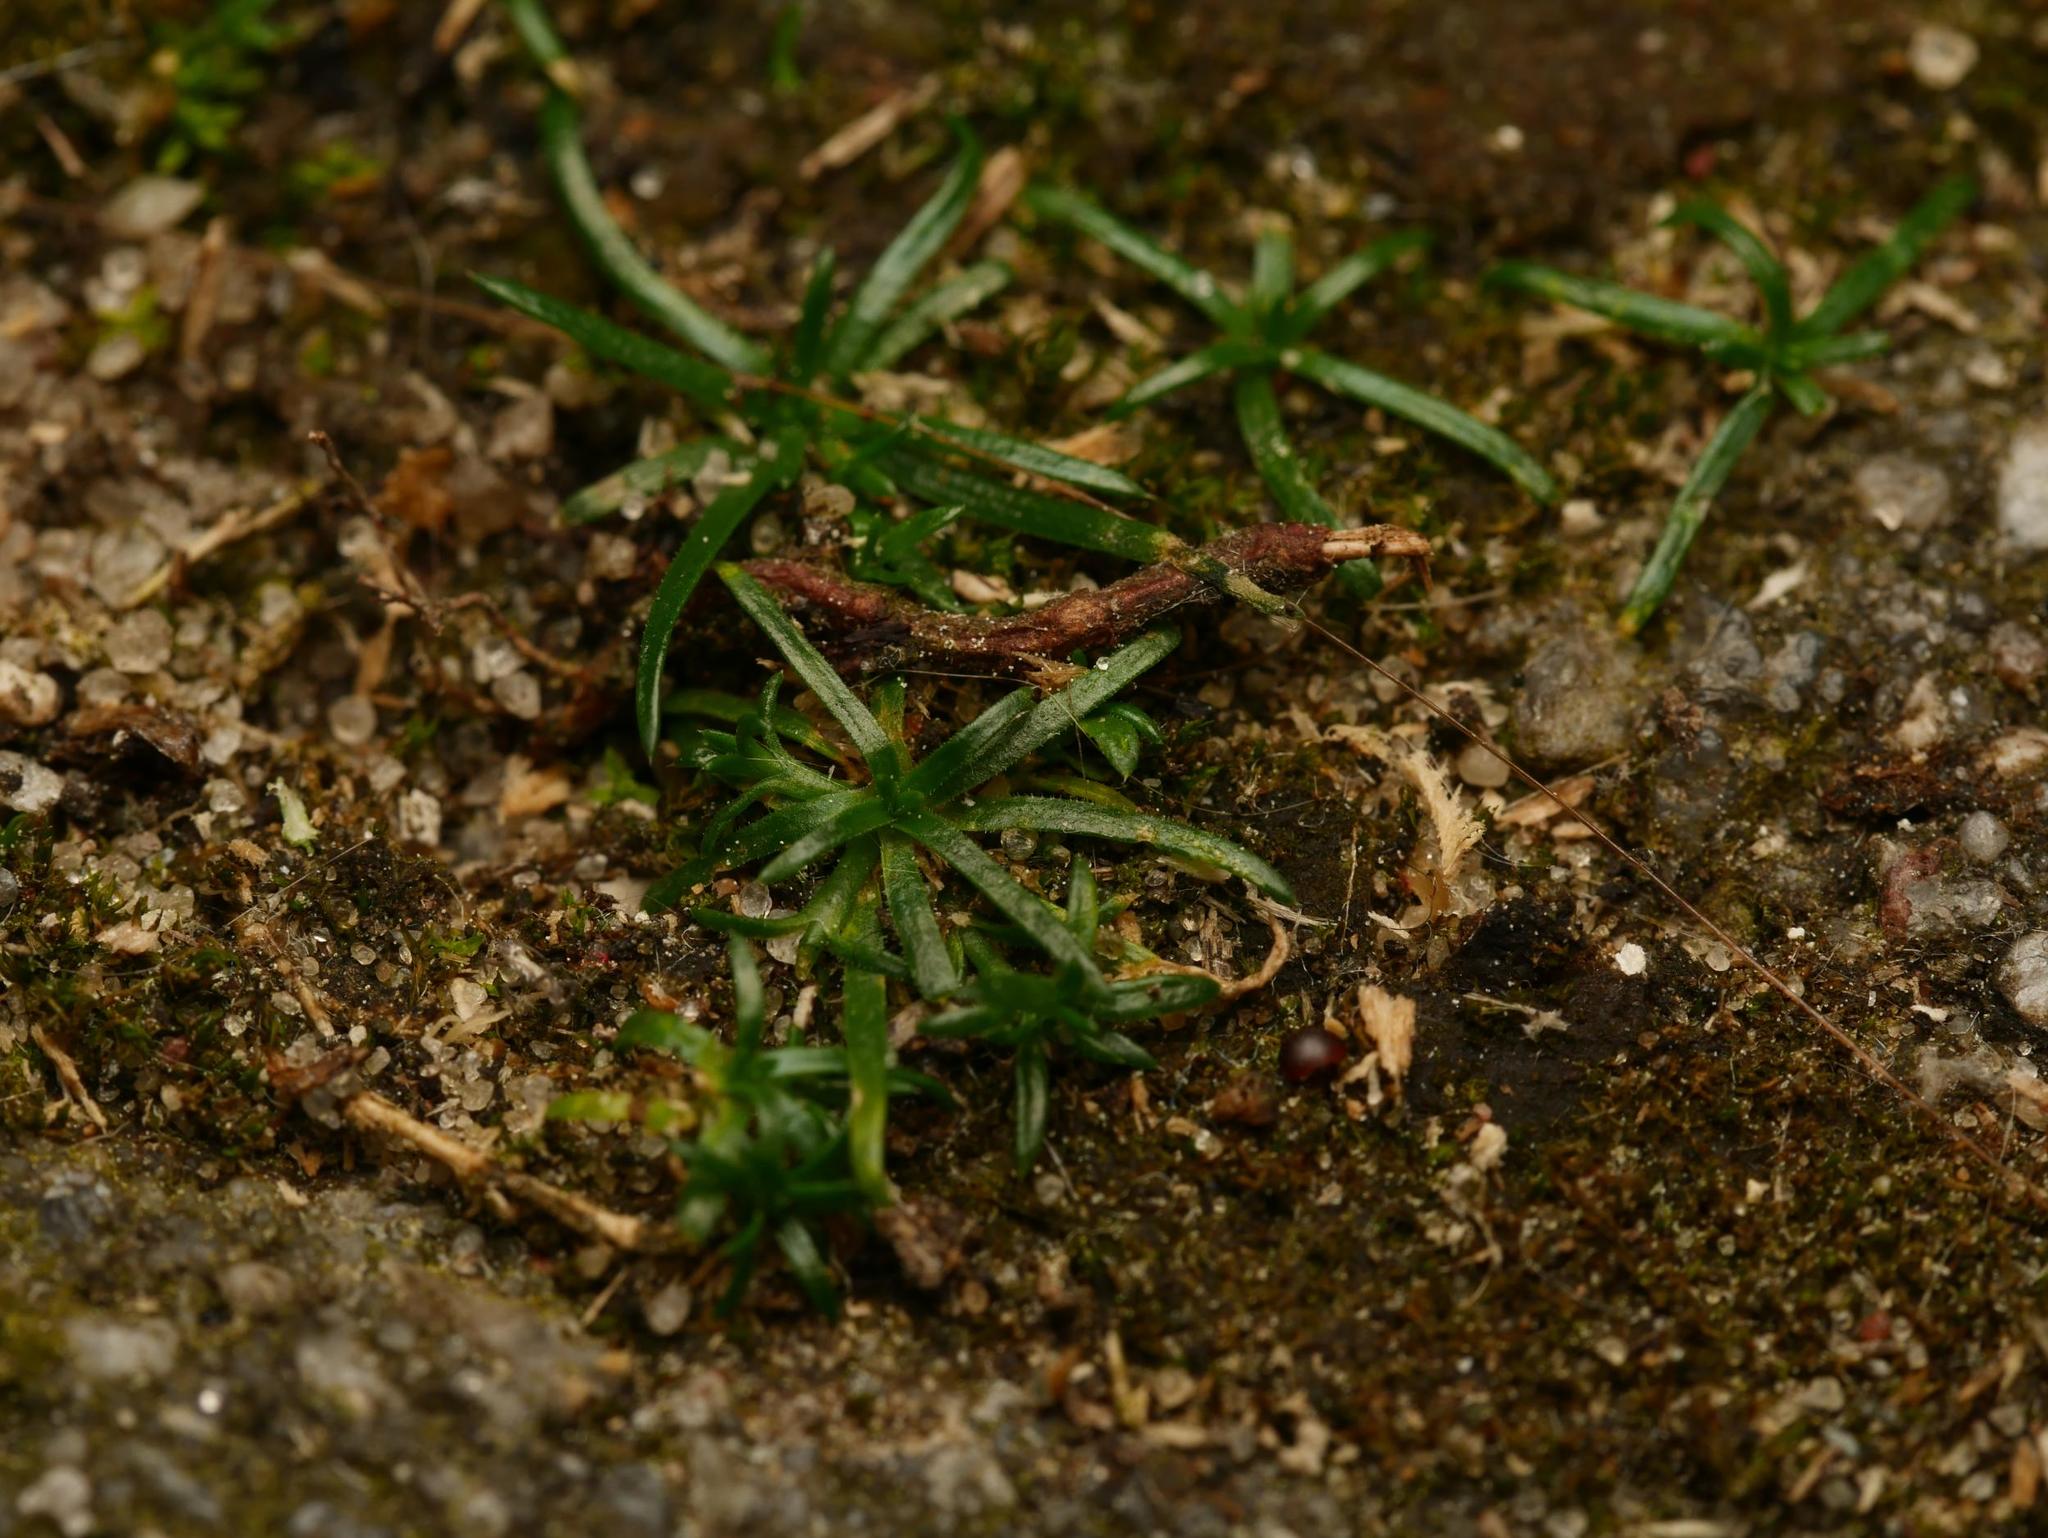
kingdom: Plantae
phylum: Tracheophyta
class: Magnoliopsida
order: Caryophyllales
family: Caryophyllaceae
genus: Sagina
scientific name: Sagina procumbens
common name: Procumbent pearlwort
